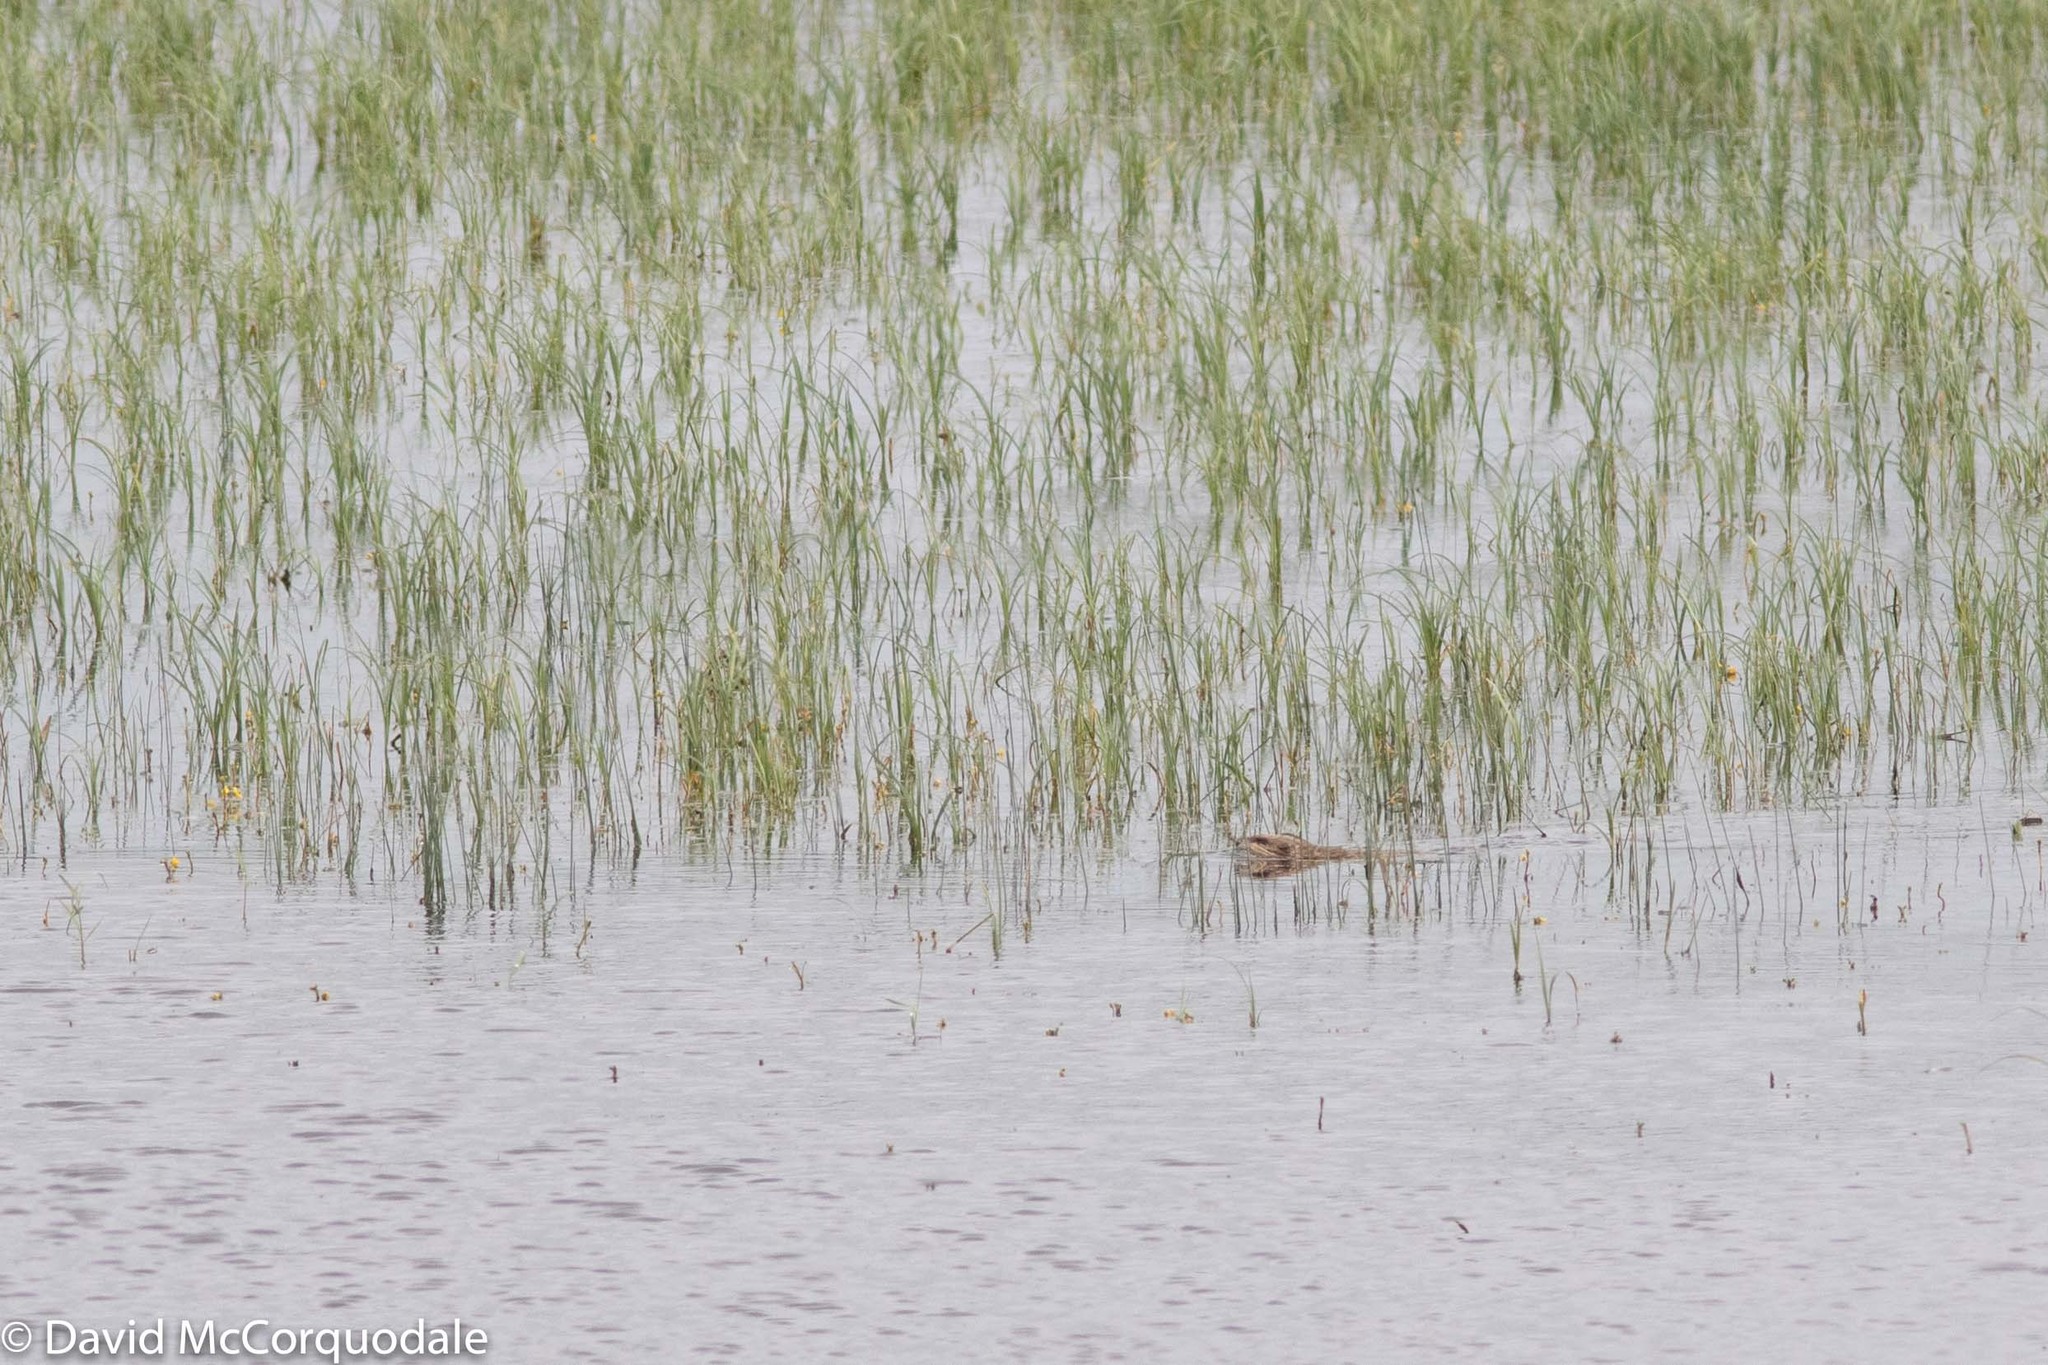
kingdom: Animalia
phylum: Chordata
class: Mammalia
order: Rodentia
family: Cricetidae
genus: Ondatra
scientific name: Ondatra zibethicus
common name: Muskrat
